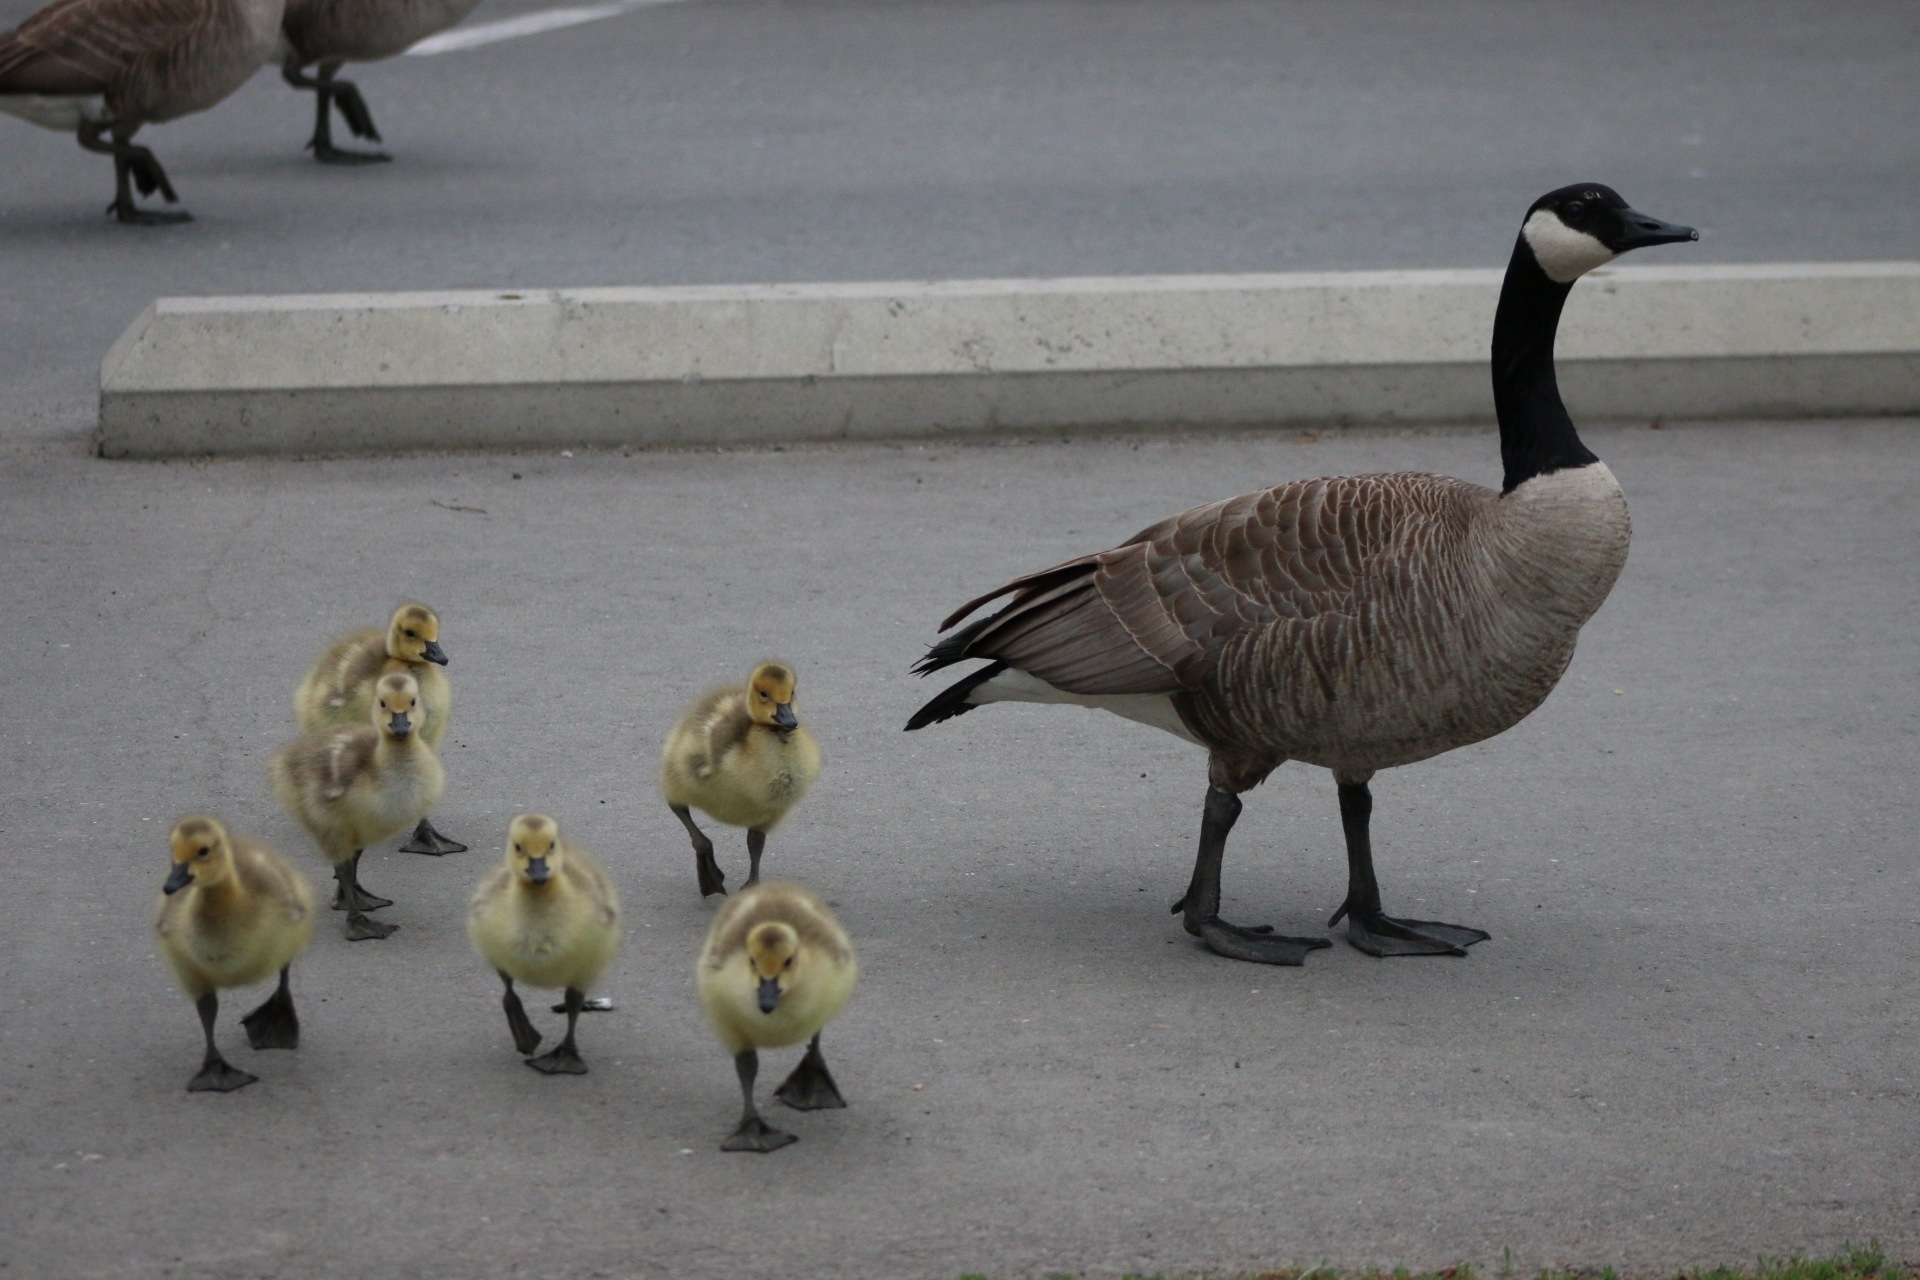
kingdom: Animalia
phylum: Chordata
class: Aves
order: Anseriformes
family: Anatidae
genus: Branta
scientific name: Branta canadensis
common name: Canada goose
